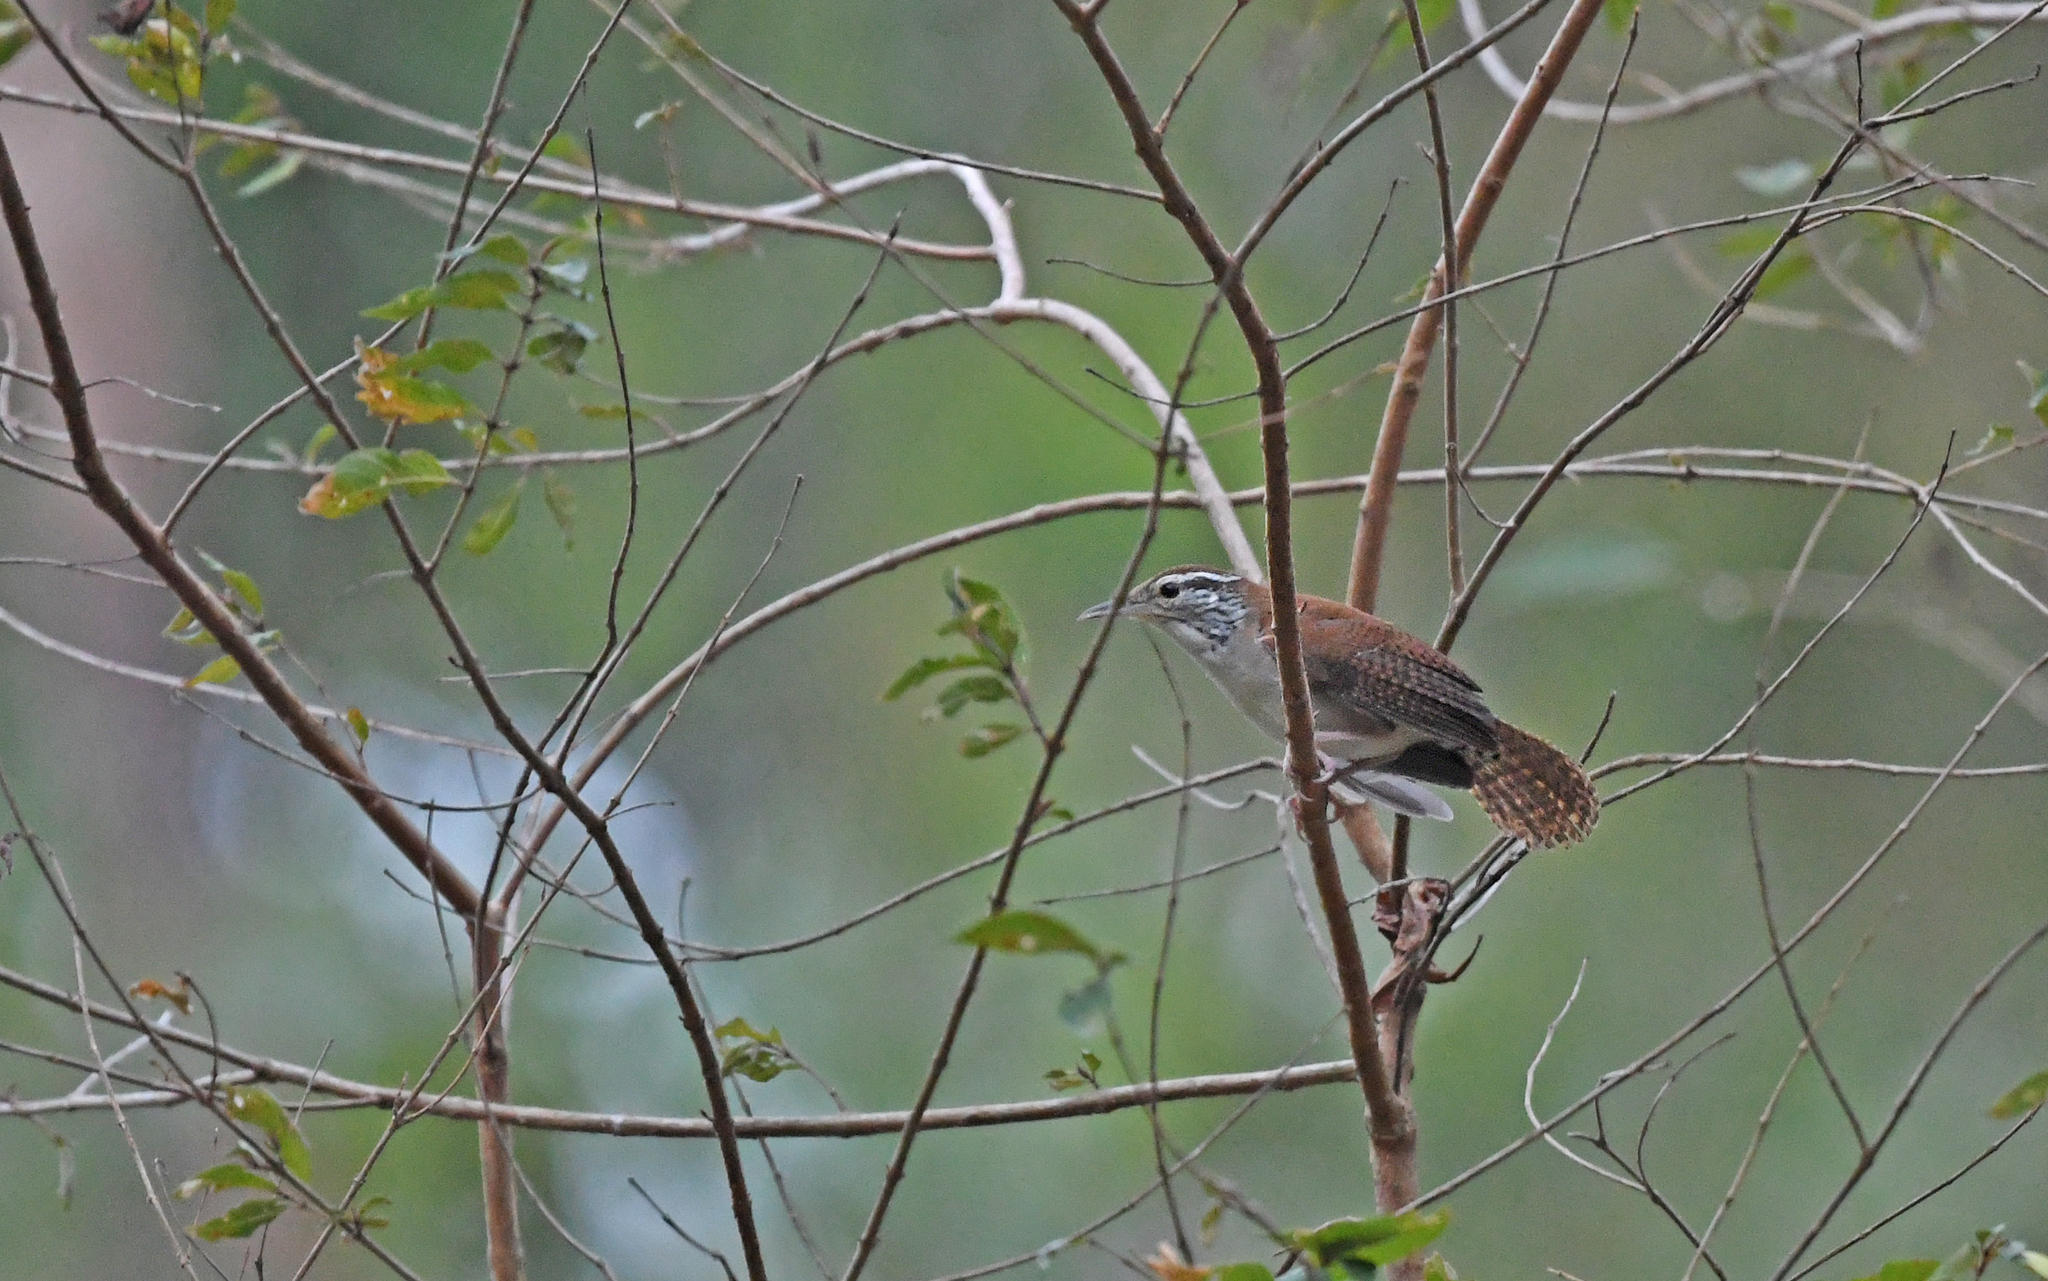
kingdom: Animalia
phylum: Chordata
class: Aves
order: Passeriformes
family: Troglodytidae
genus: Thryophilus
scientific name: Thryophilus rufalbus
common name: Rufous-and-white wren
